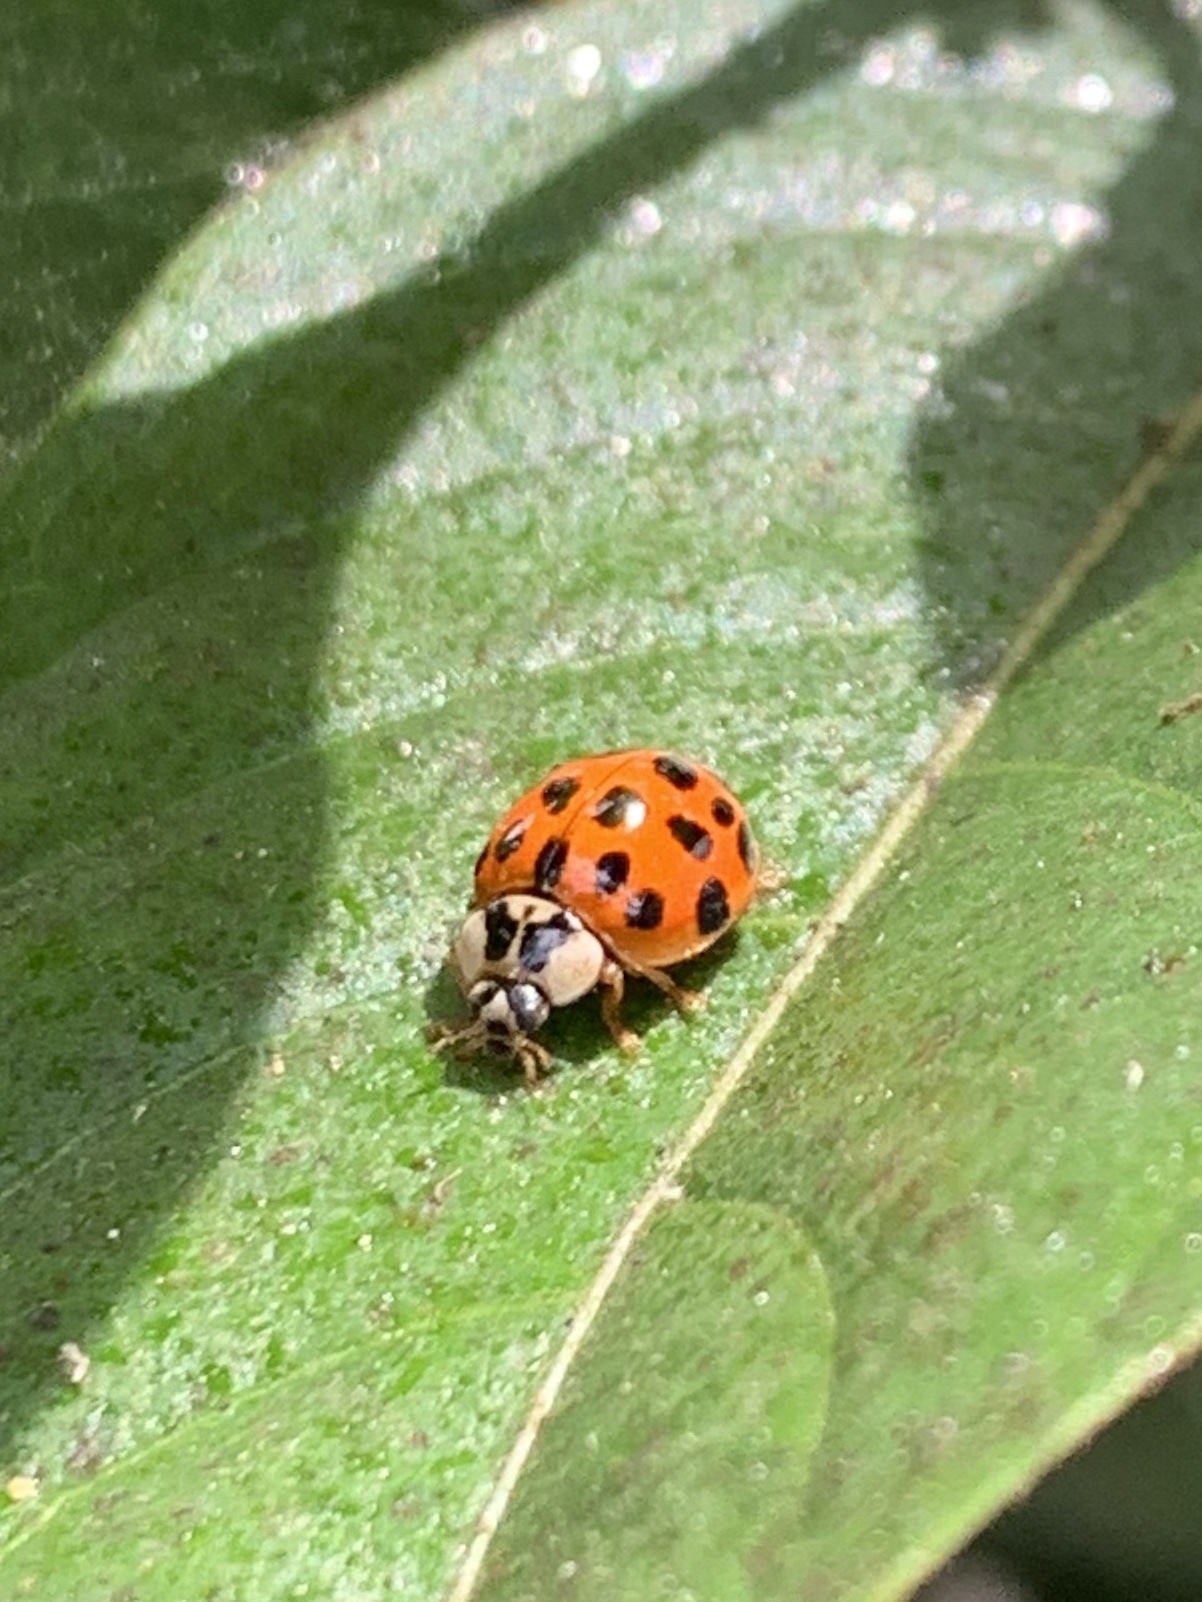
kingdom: Animalia
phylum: Arthropoda
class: Insecta
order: Coleoptera
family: Coccinellidae
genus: Harmonia
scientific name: Harmonia axyridis
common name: Harlequin ladybird
